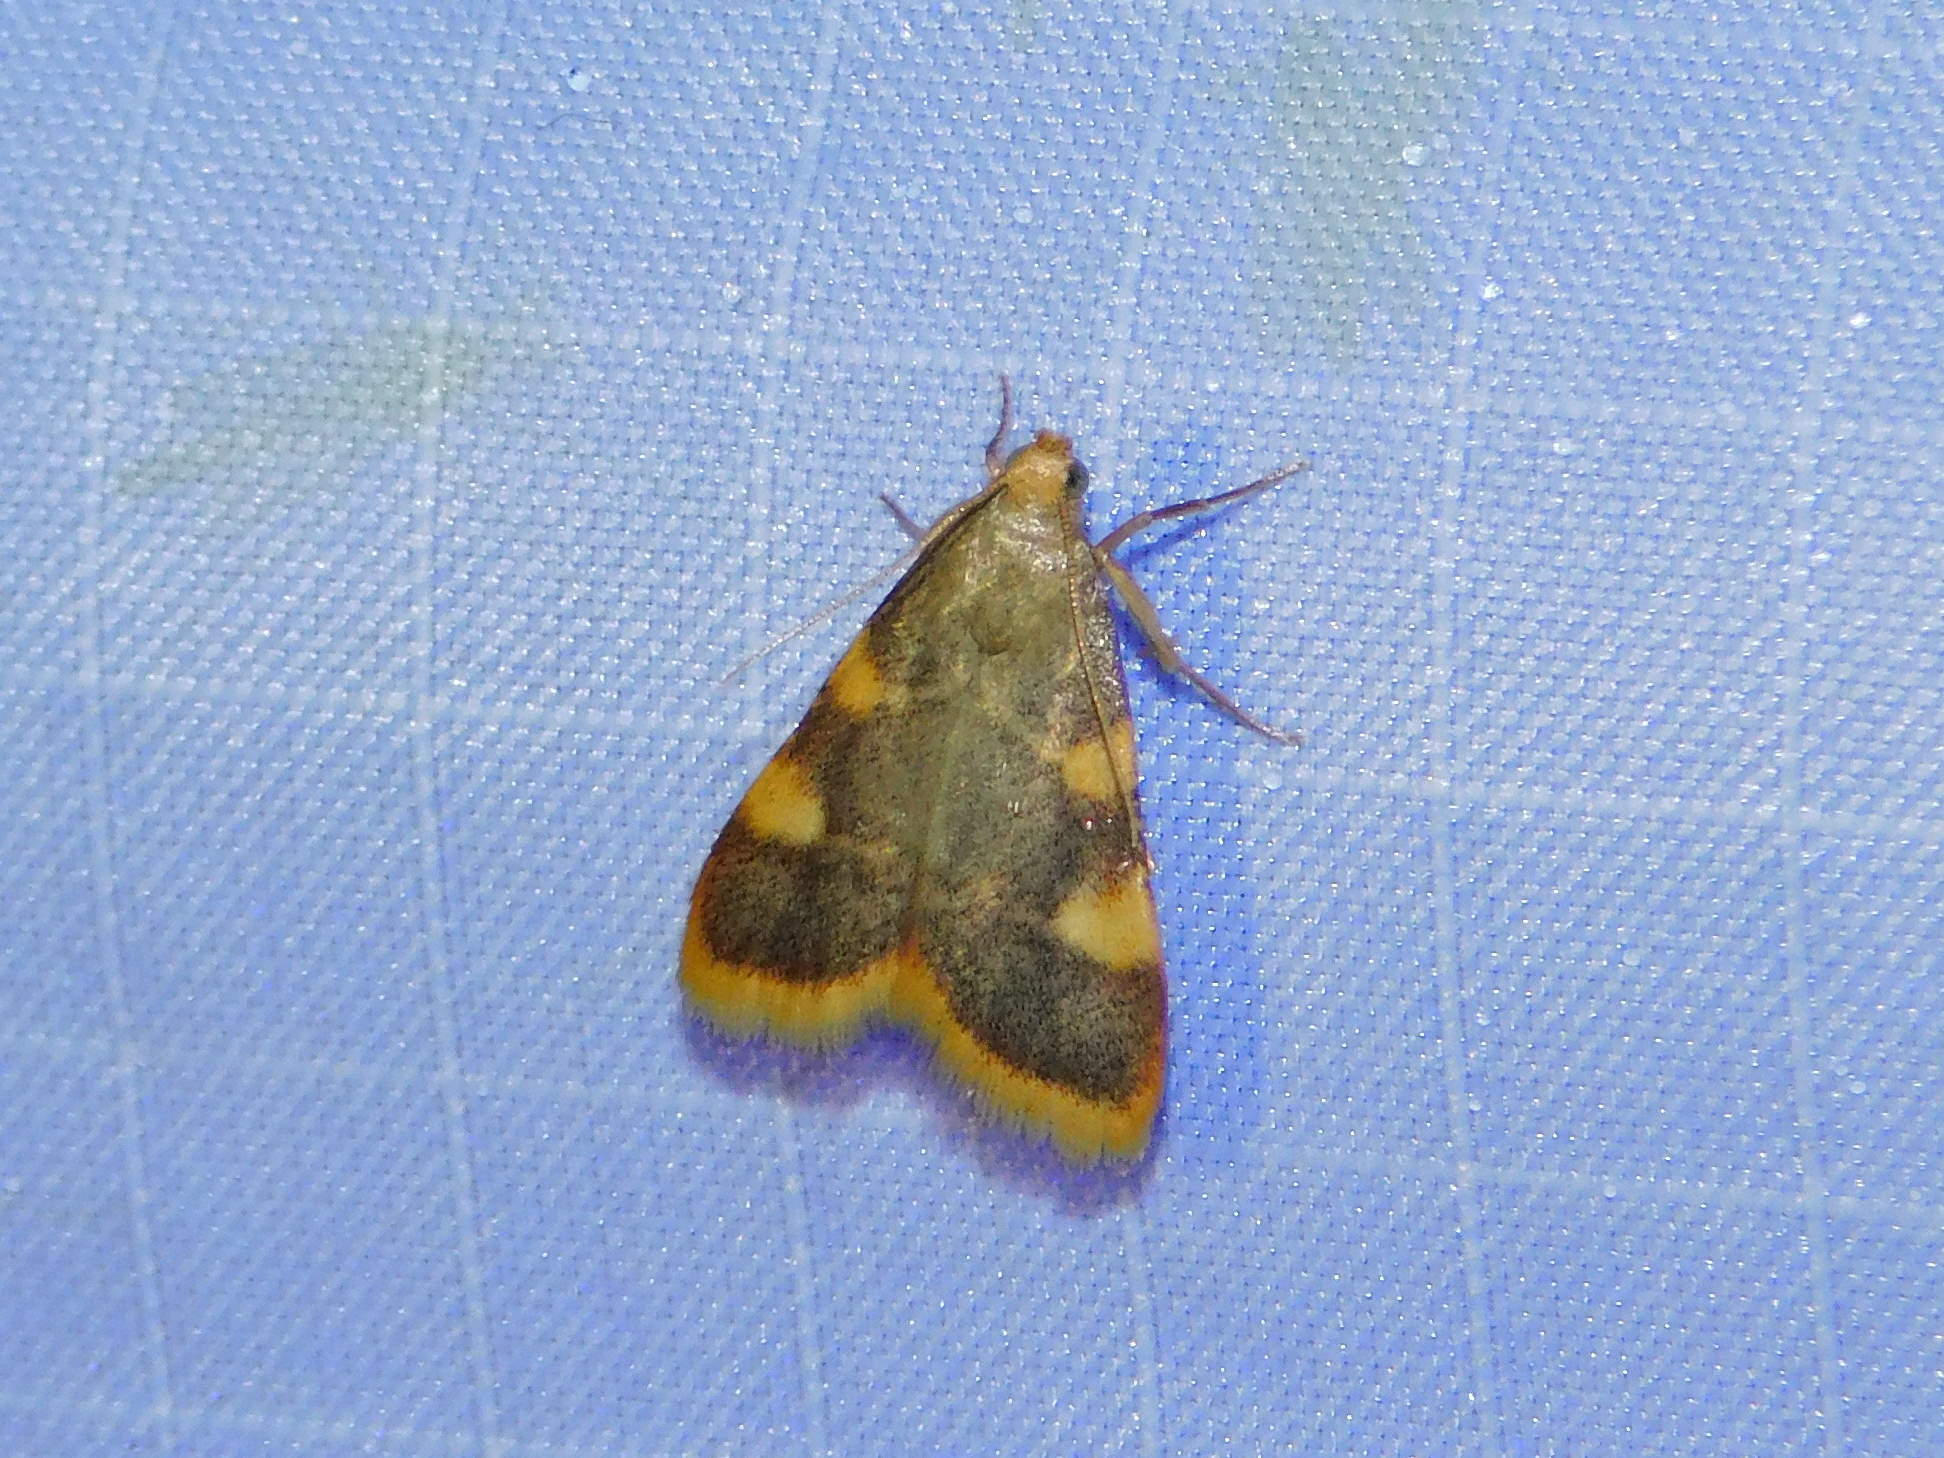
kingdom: Animalia
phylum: Arthropoda
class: Insecta
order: Lepidoptera
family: Pyralidae
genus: Hypsopygia
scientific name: Hypsopygia costalis
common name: Gold triangle
